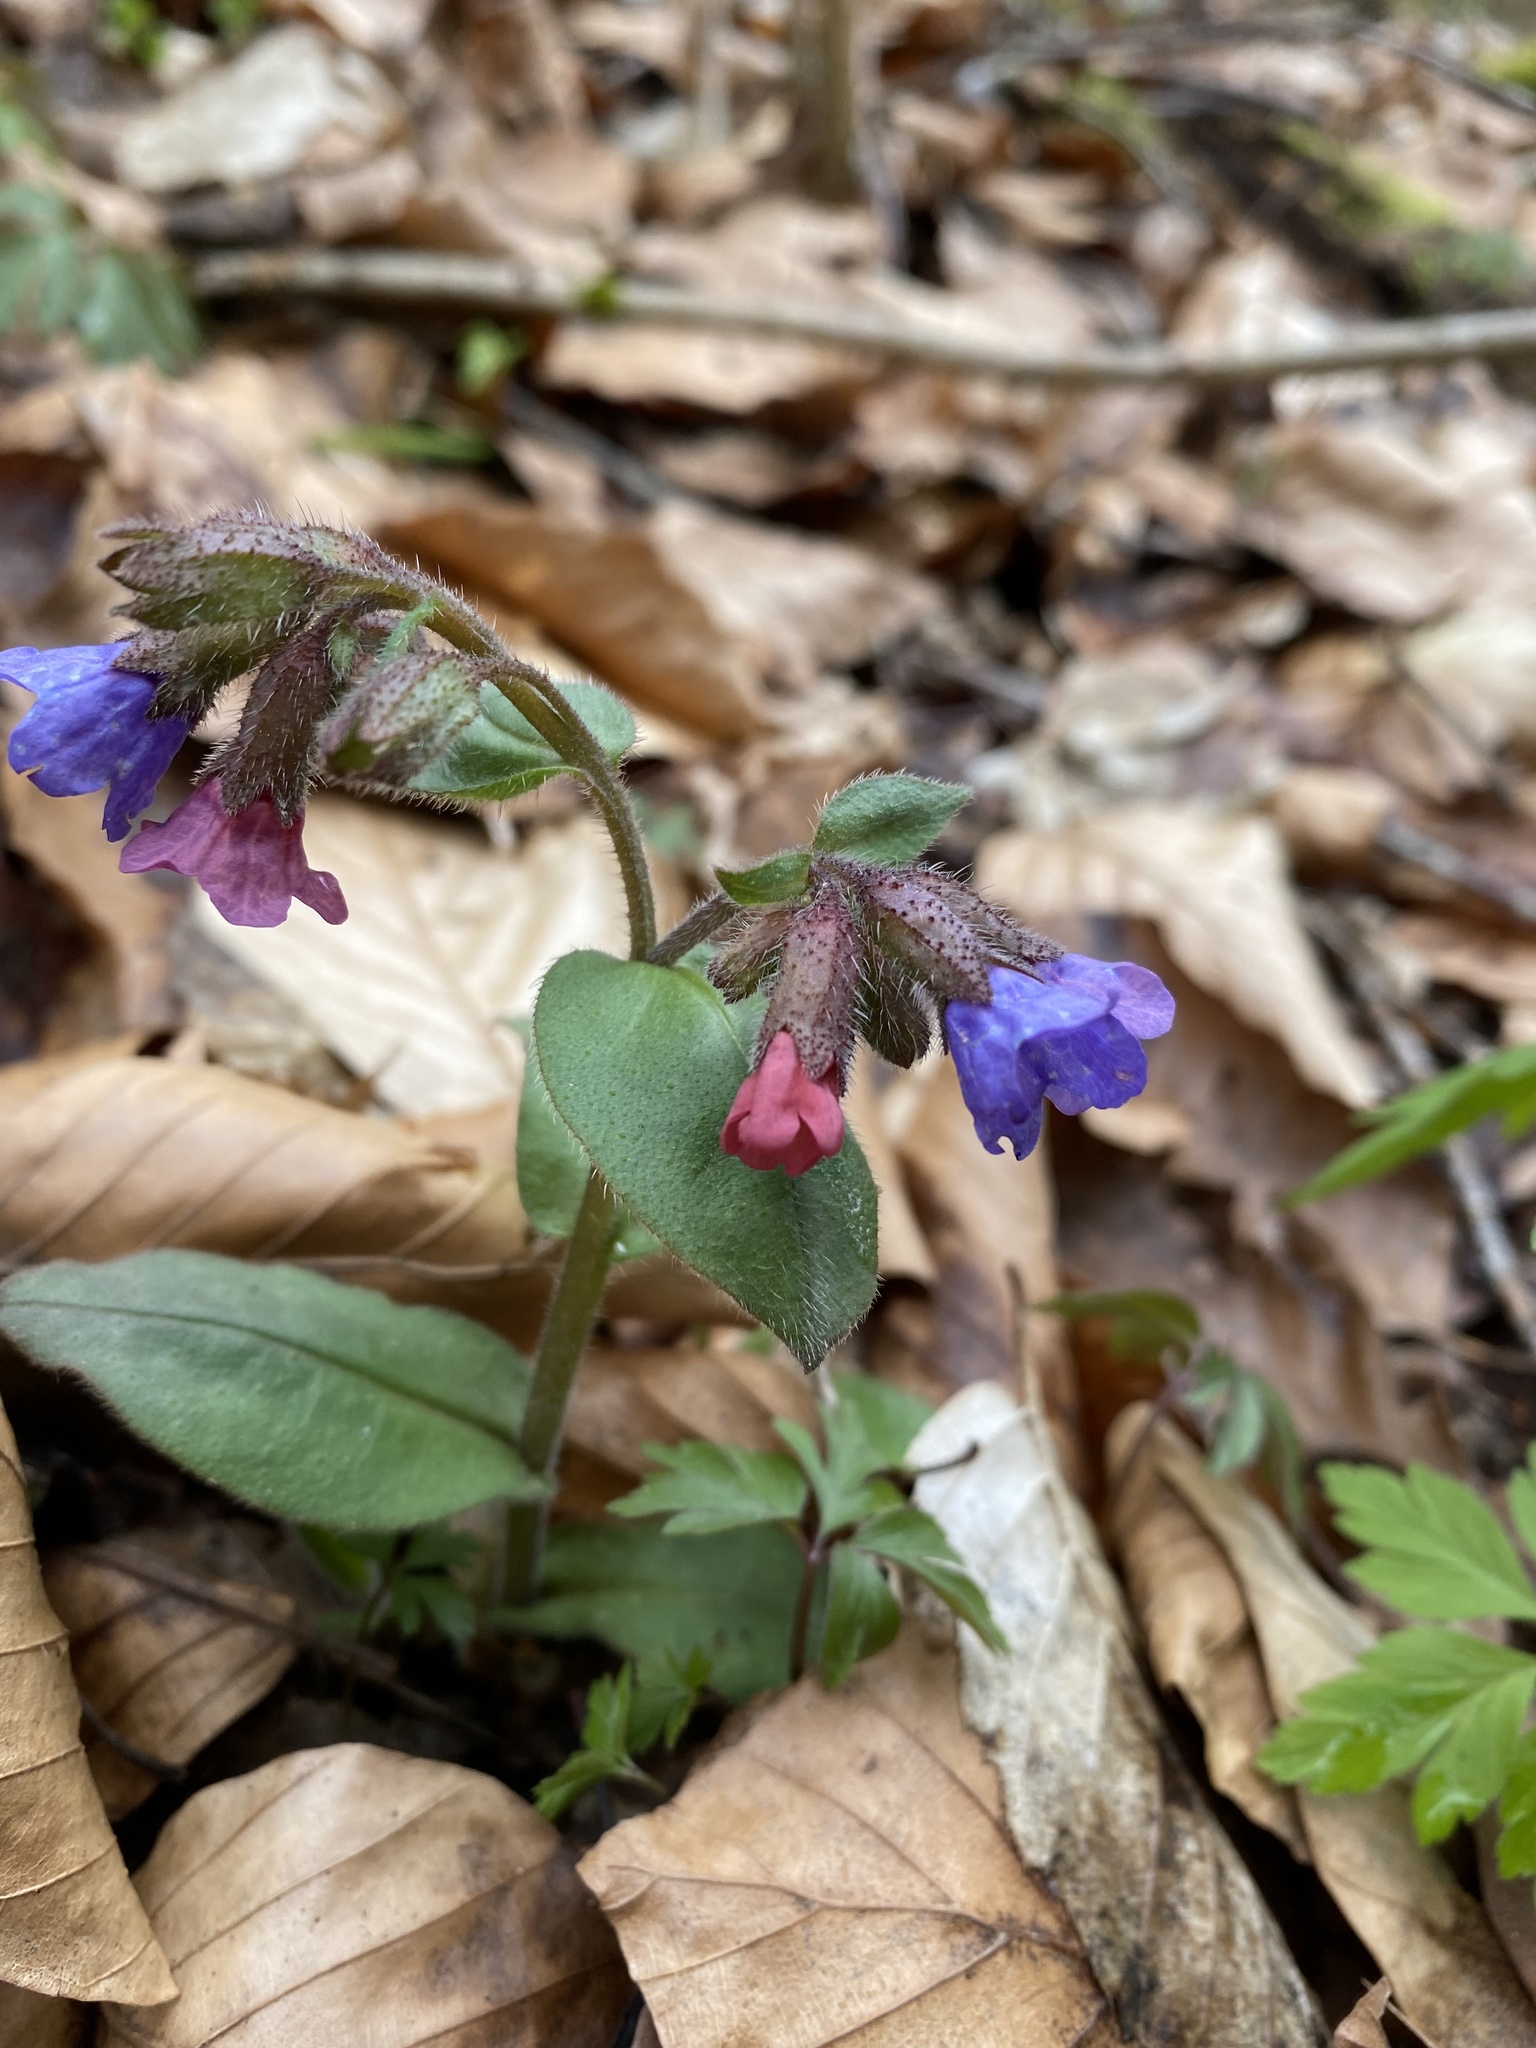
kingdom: Plantae
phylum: Tracheophyta
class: Magnoliopsida
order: Boraginales
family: Boraginaceae
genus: Pulmonaria
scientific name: Pulmonaria obscura
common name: Suffolk lungwort
